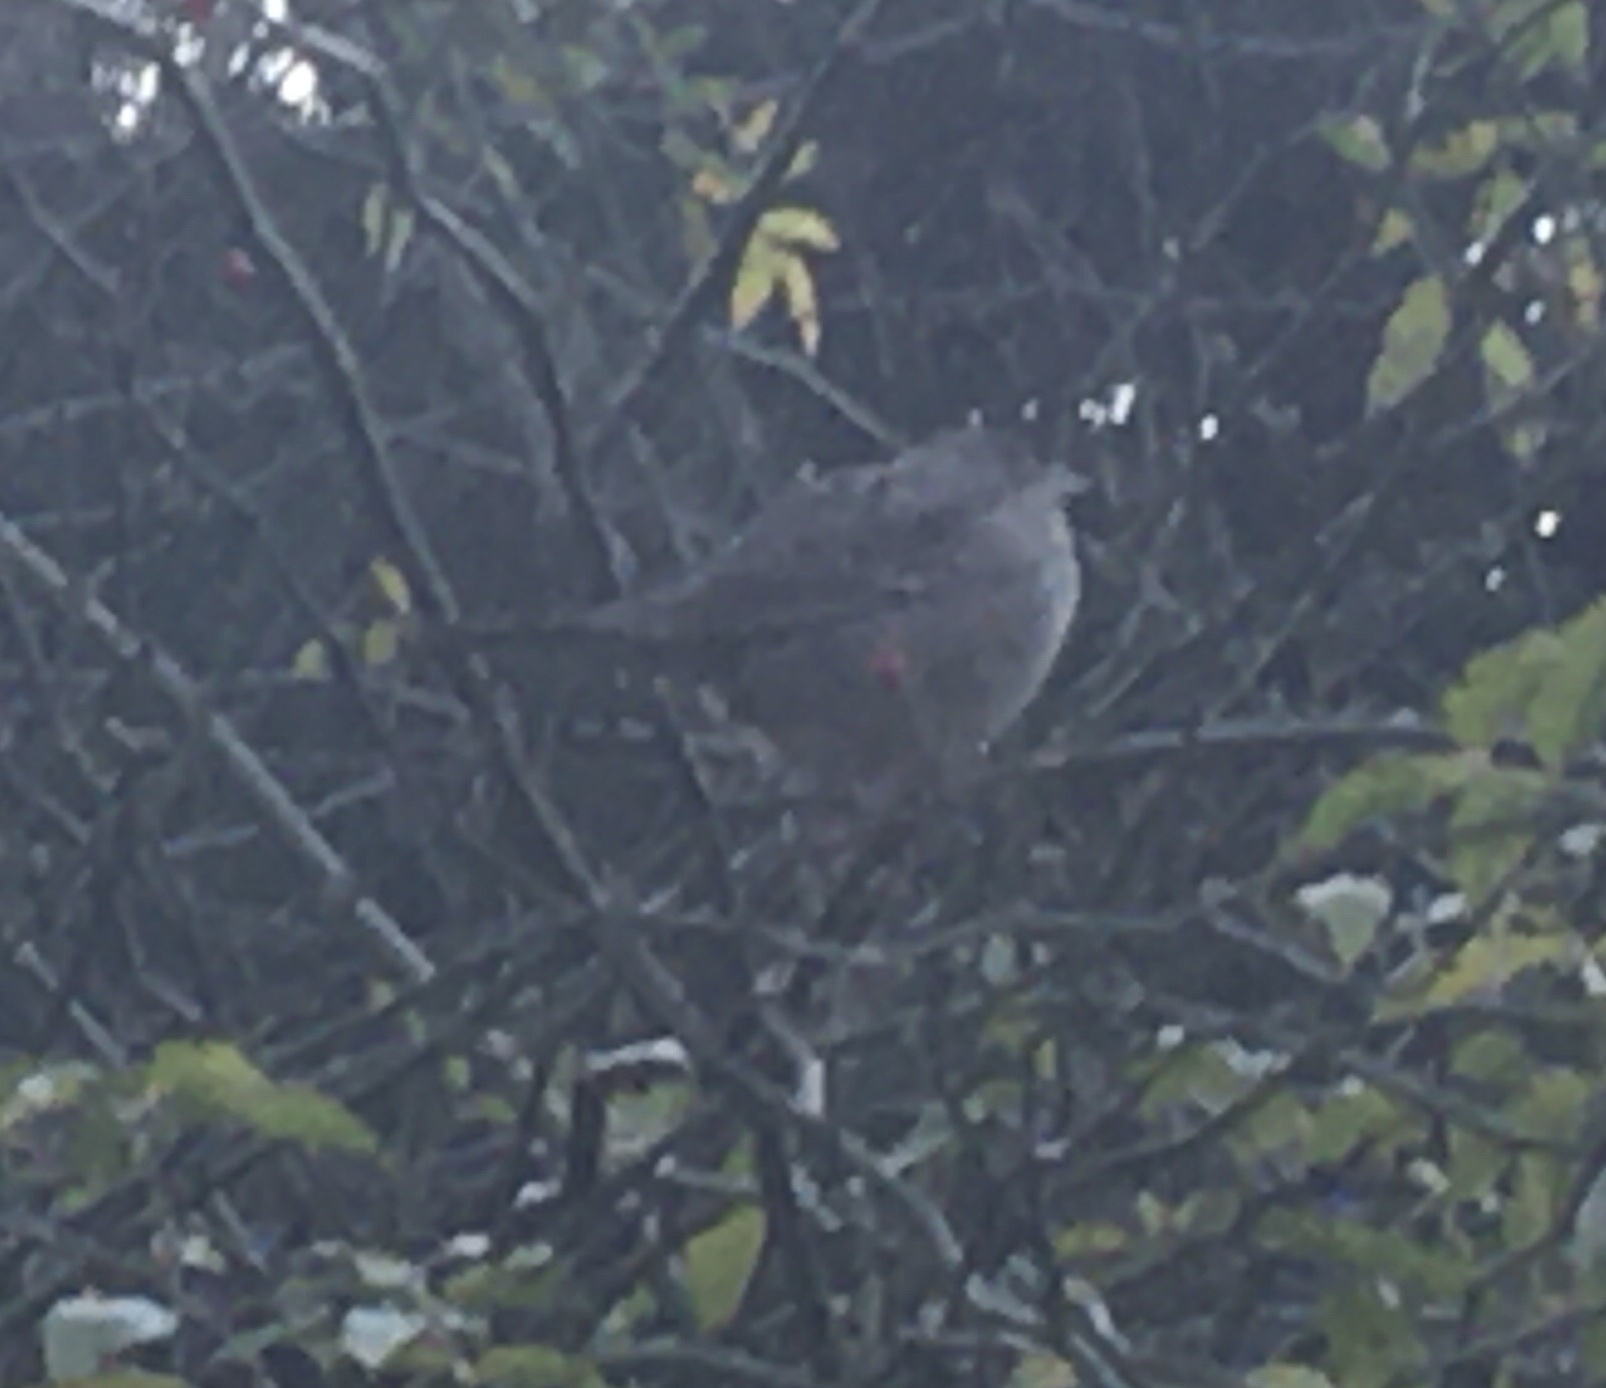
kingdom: Animalia
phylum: Chordata
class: Aves
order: Passeriformes
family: Passerellidae
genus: Zonotrichia
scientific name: Zonotrichia atricapilla
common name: Golden-crowned sparrow
